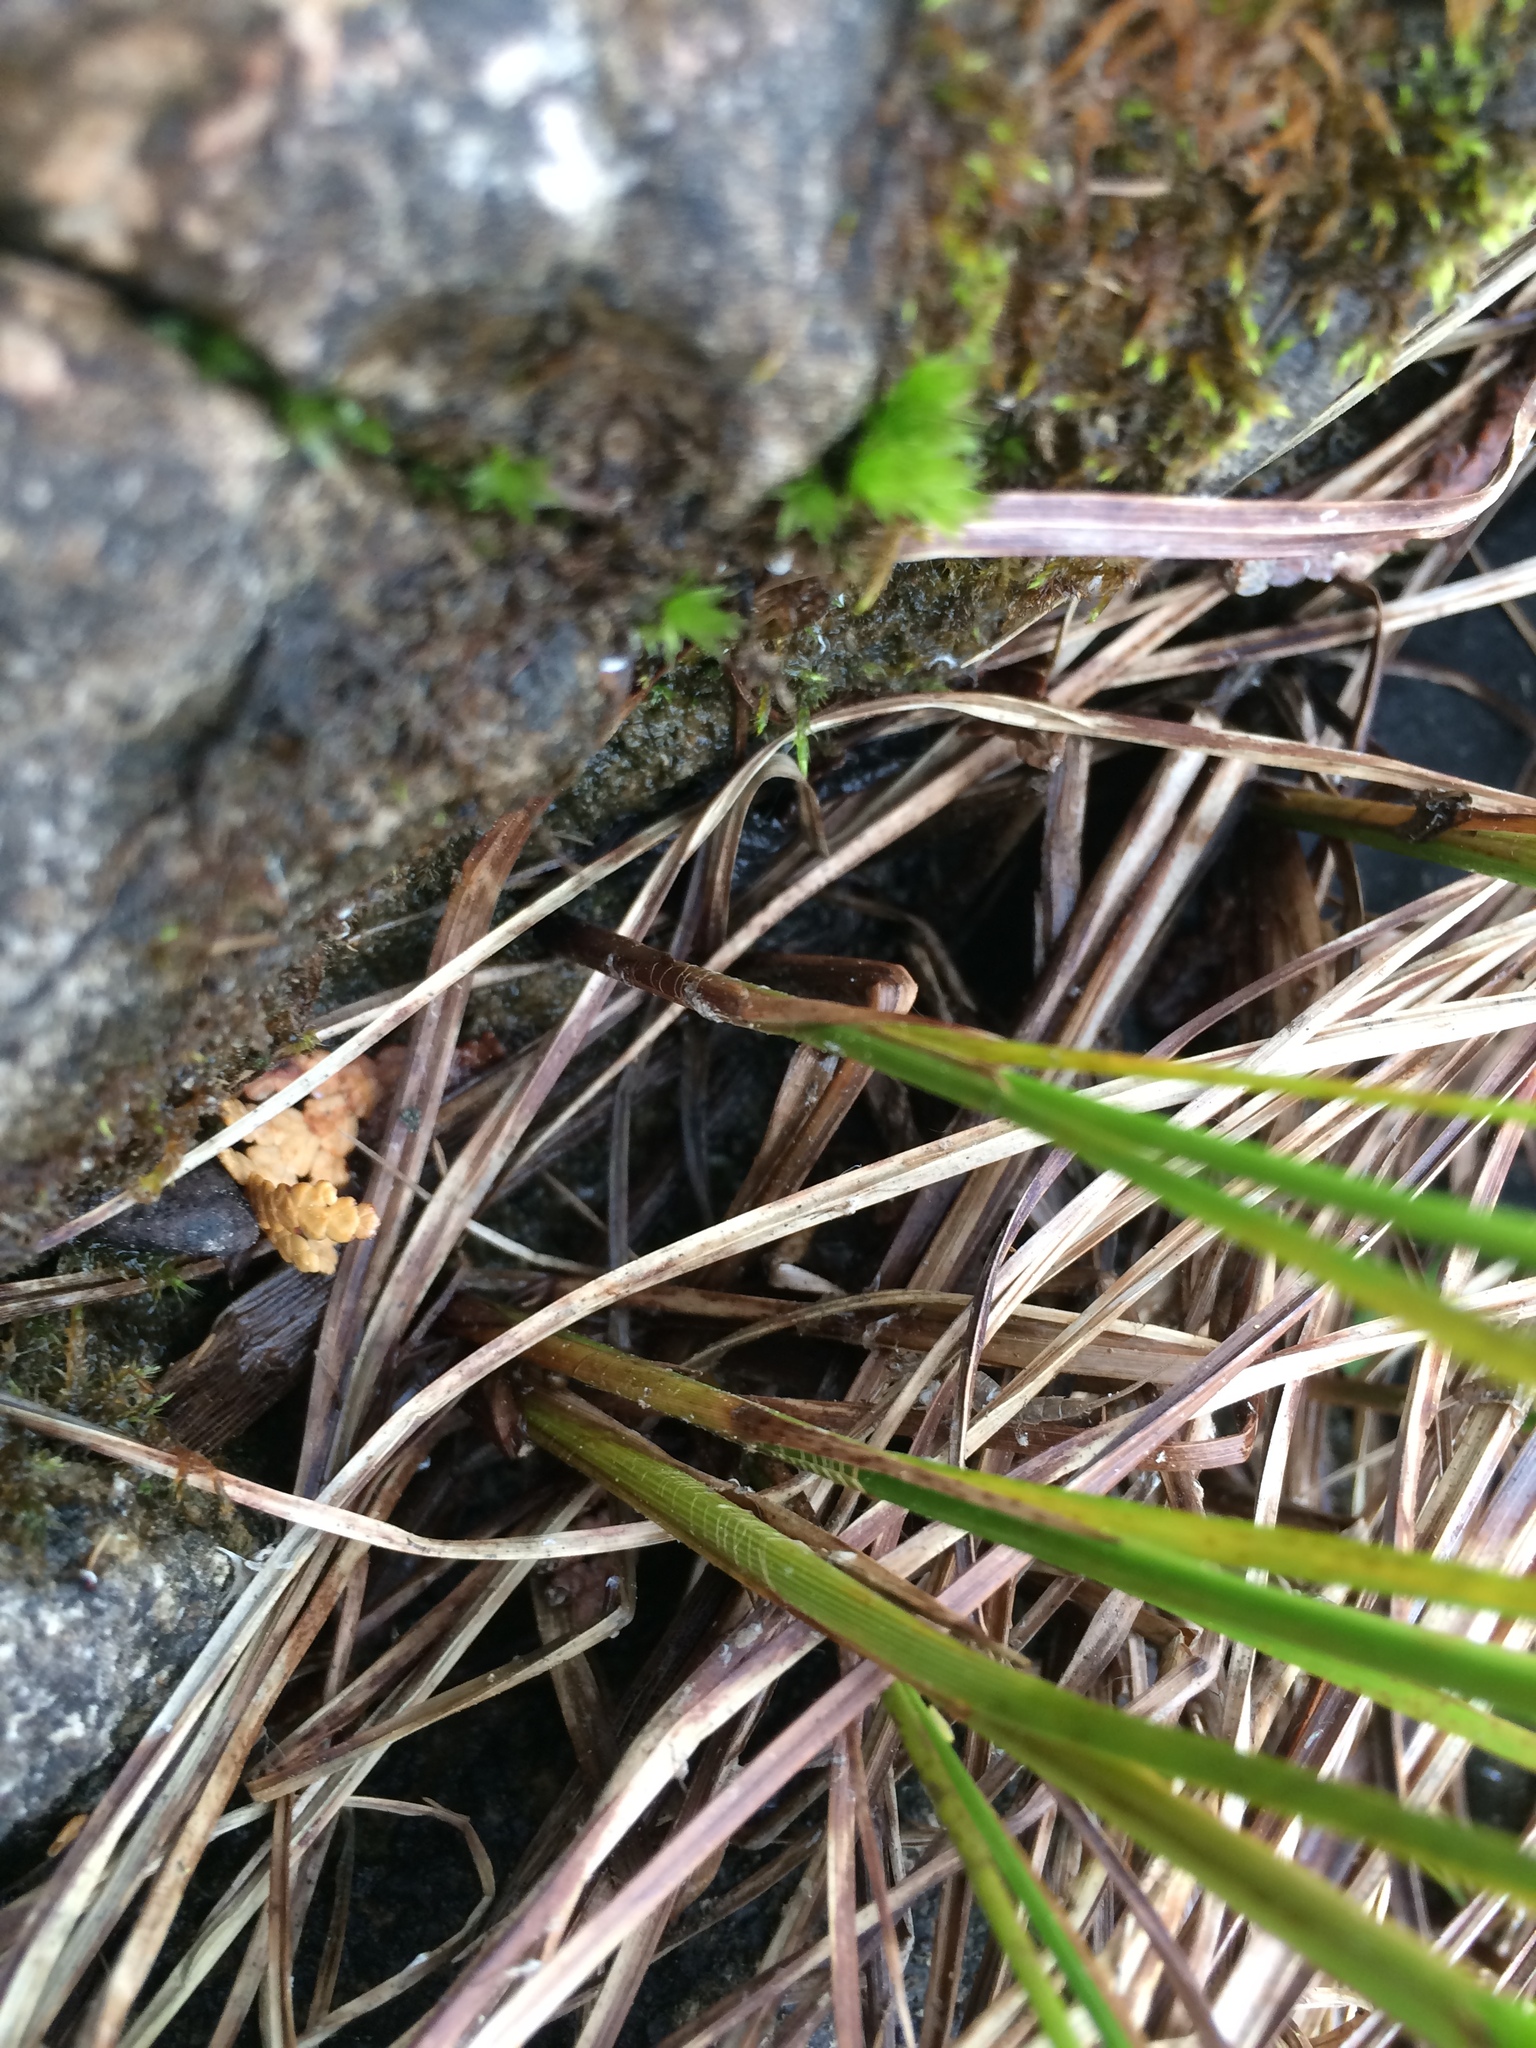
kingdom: Plantae
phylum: Tracheophyta
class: Liliopsida
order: Poales
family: Cyperaceae
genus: Carex
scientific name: Carex pellita
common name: Woolly sedge
